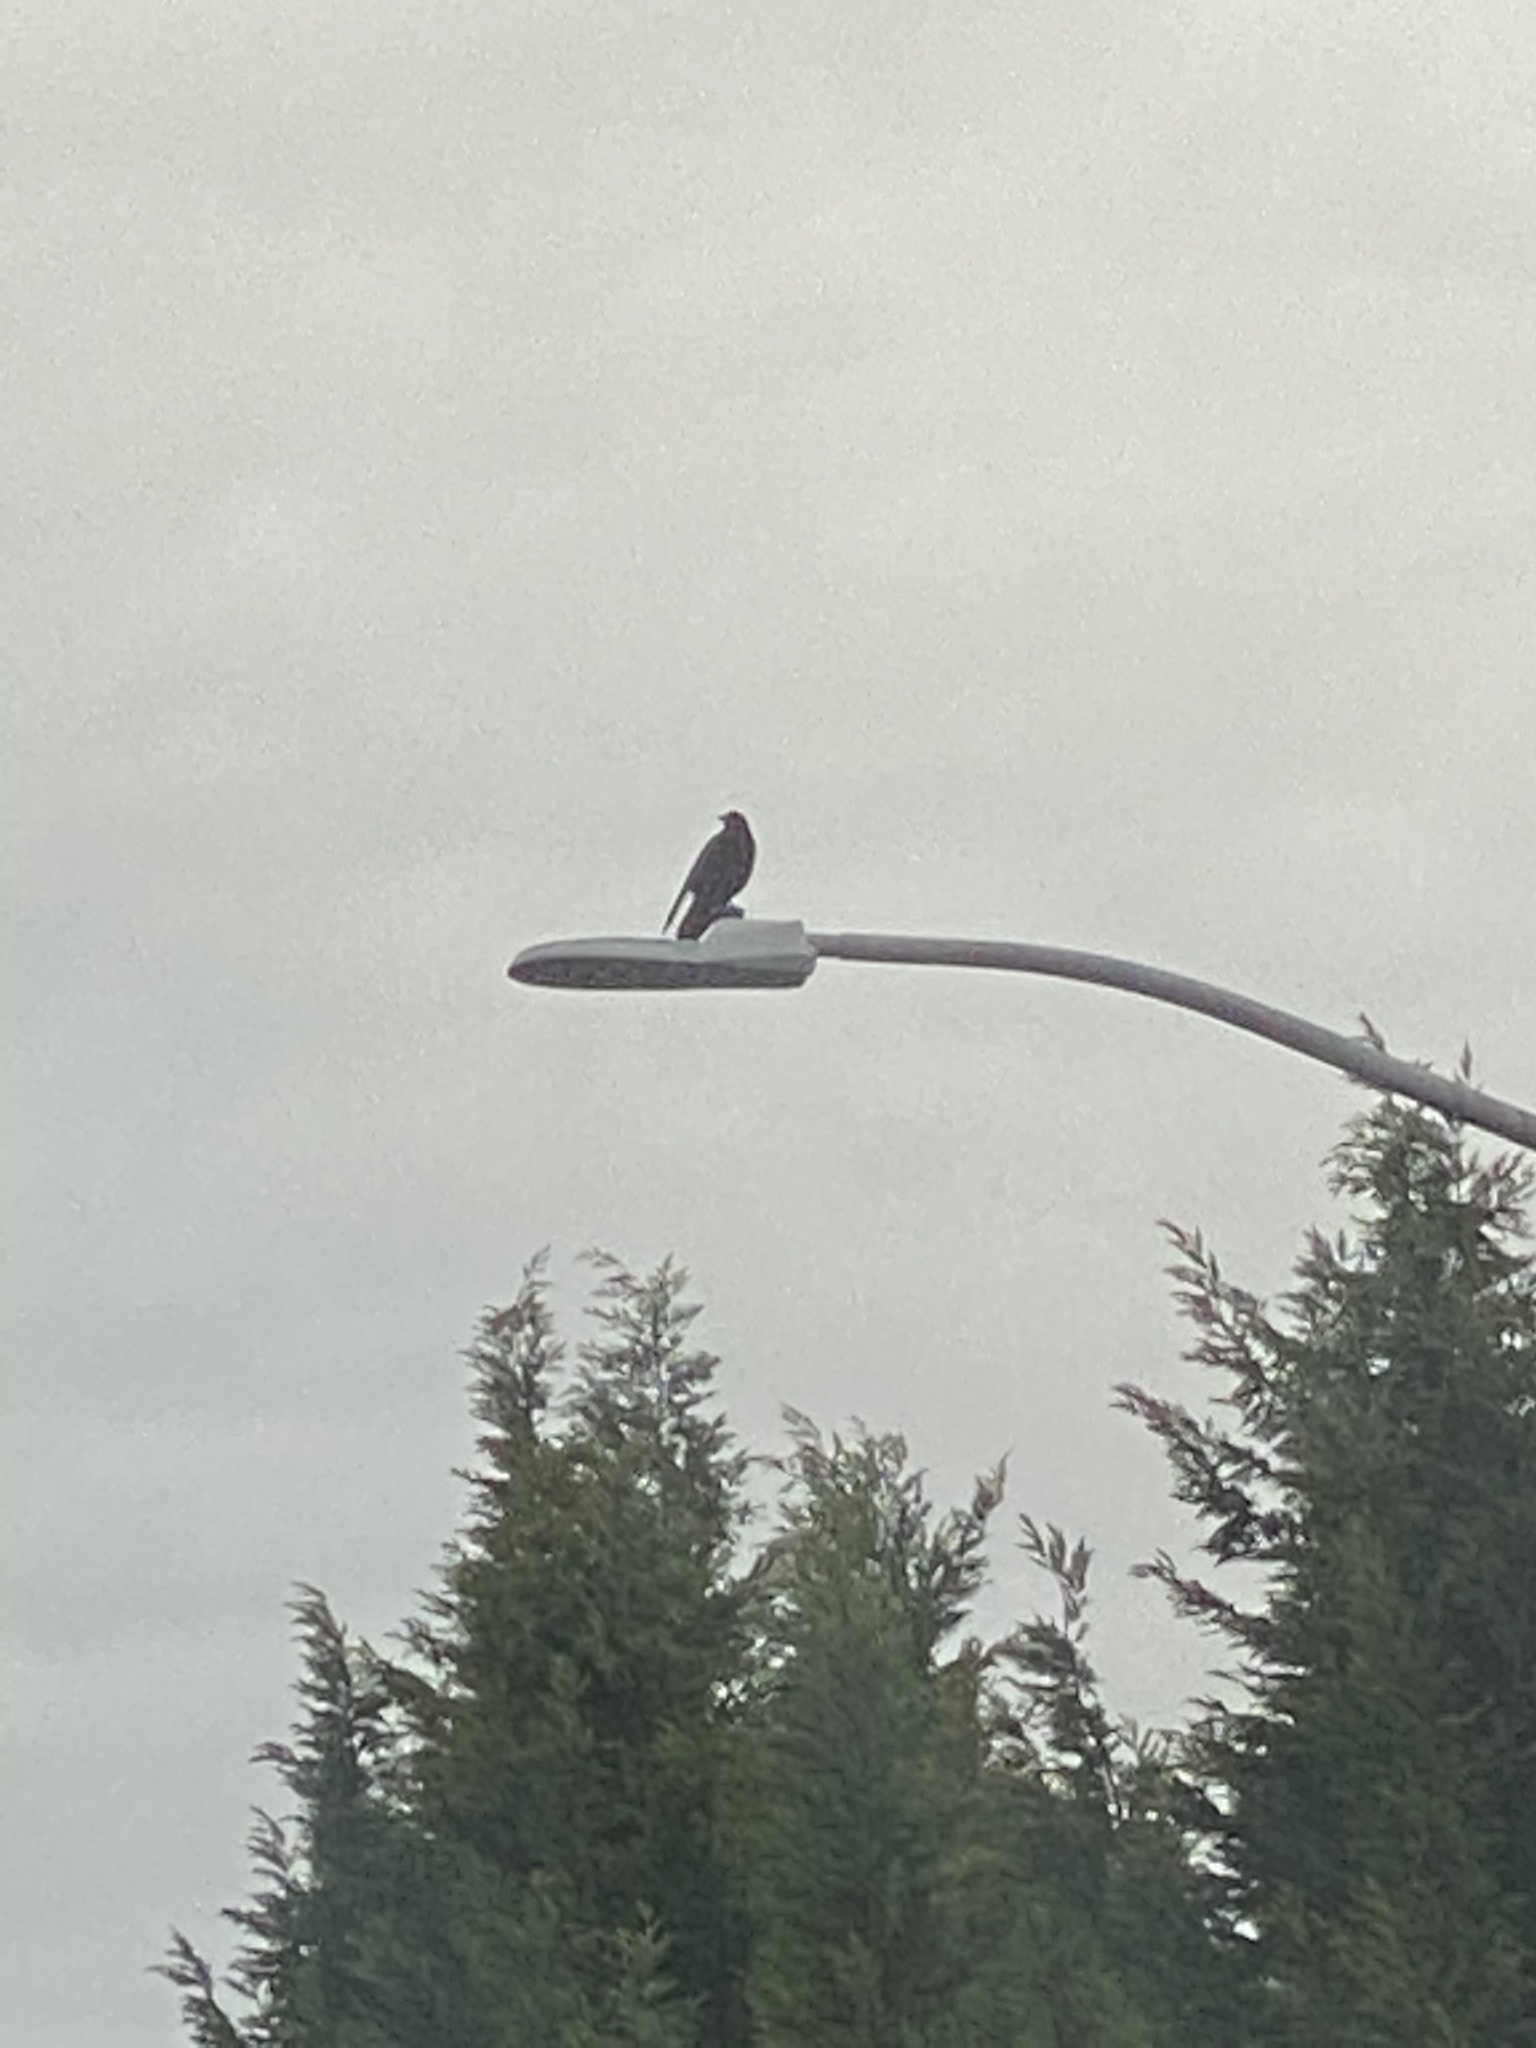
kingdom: Animalia
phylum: Chordata
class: Aves
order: Passeriformes
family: Corvidae
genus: Corvus
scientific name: Corvus brachyrhynchos
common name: American crow
